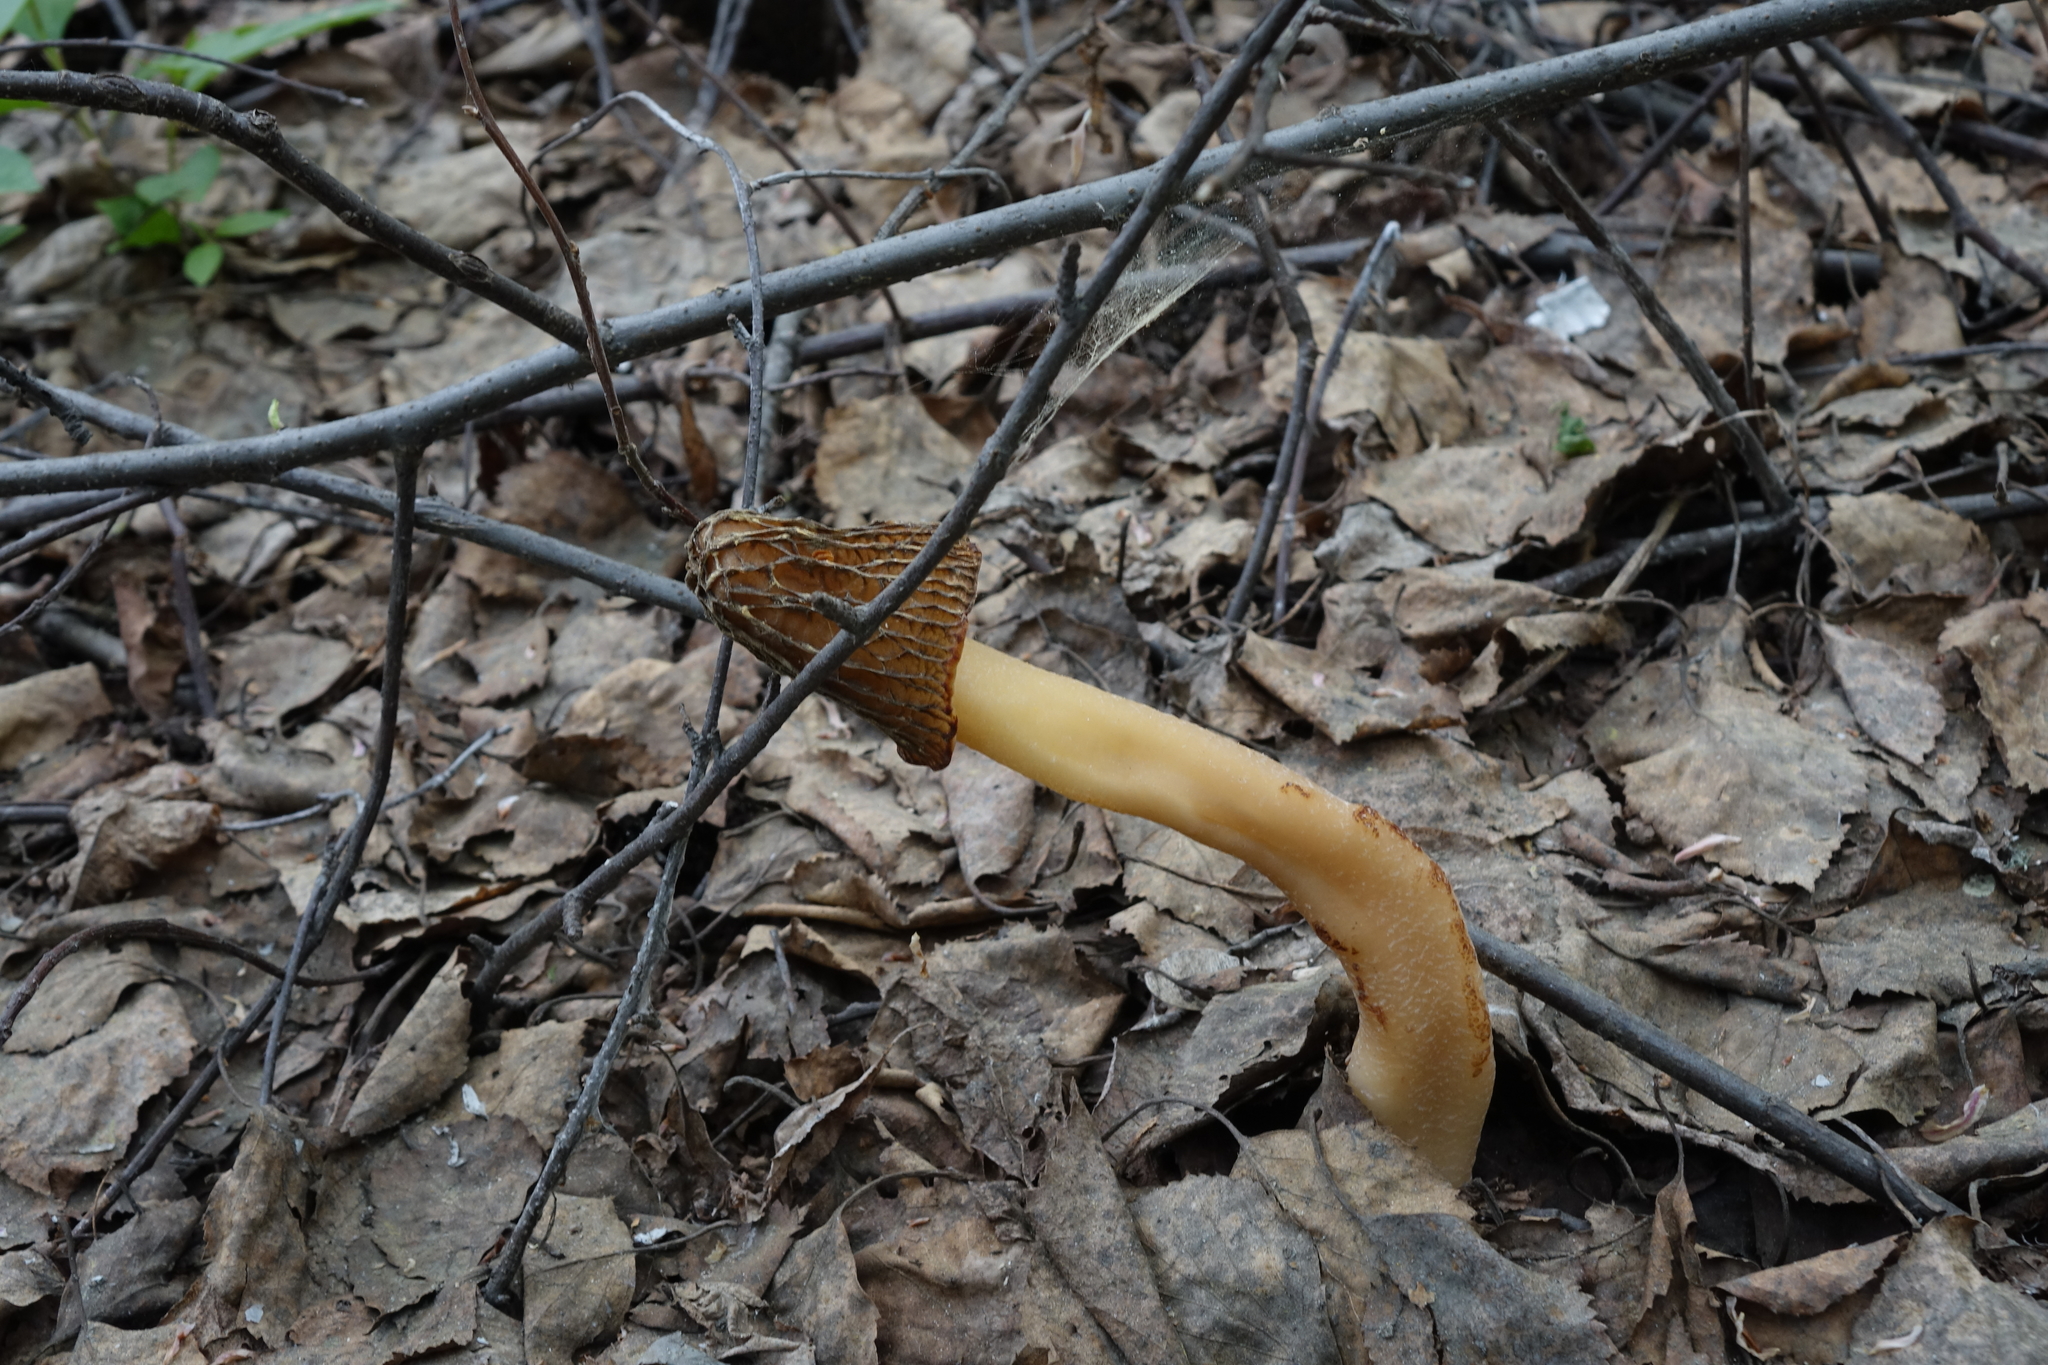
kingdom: Fungi
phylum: Ascomycota
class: Pezizomycetes
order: Pezizales
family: Morchellaceae
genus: Verpa
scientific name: Verpa bohemica
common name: Wrinkled thimble morel
